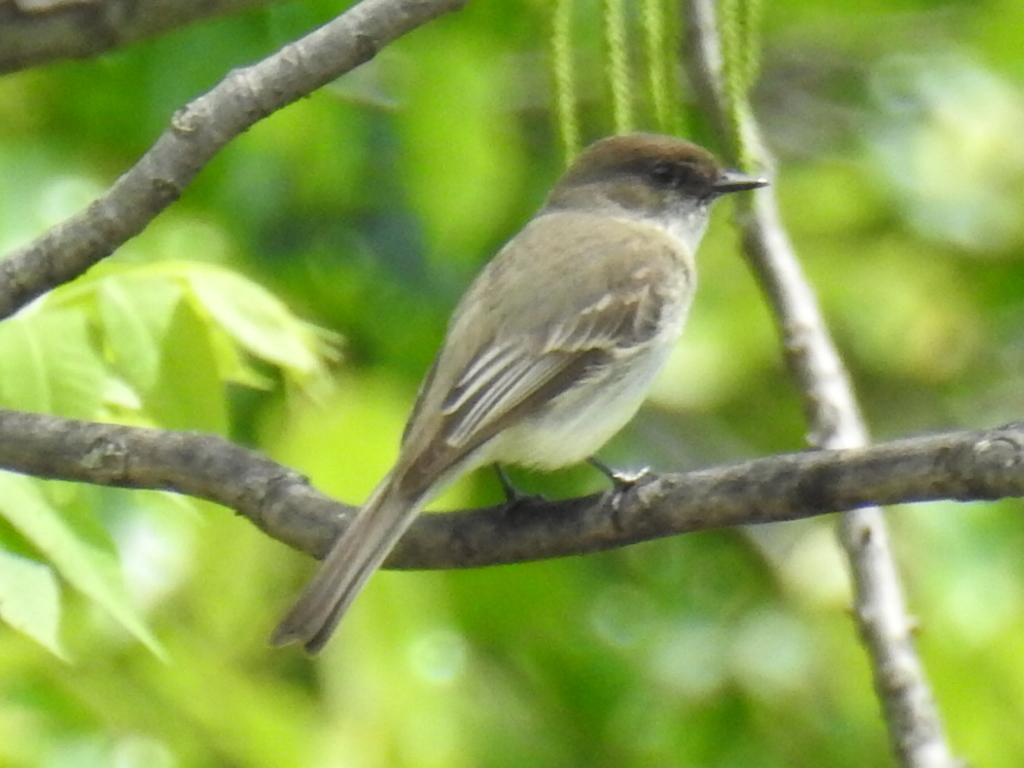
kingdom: Animalia
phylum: Chordata
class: Aves
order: Passeriformes
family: Tyrannidae
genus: Sayornis
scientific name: Sayornis phoebe
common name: Eastern phoebe
